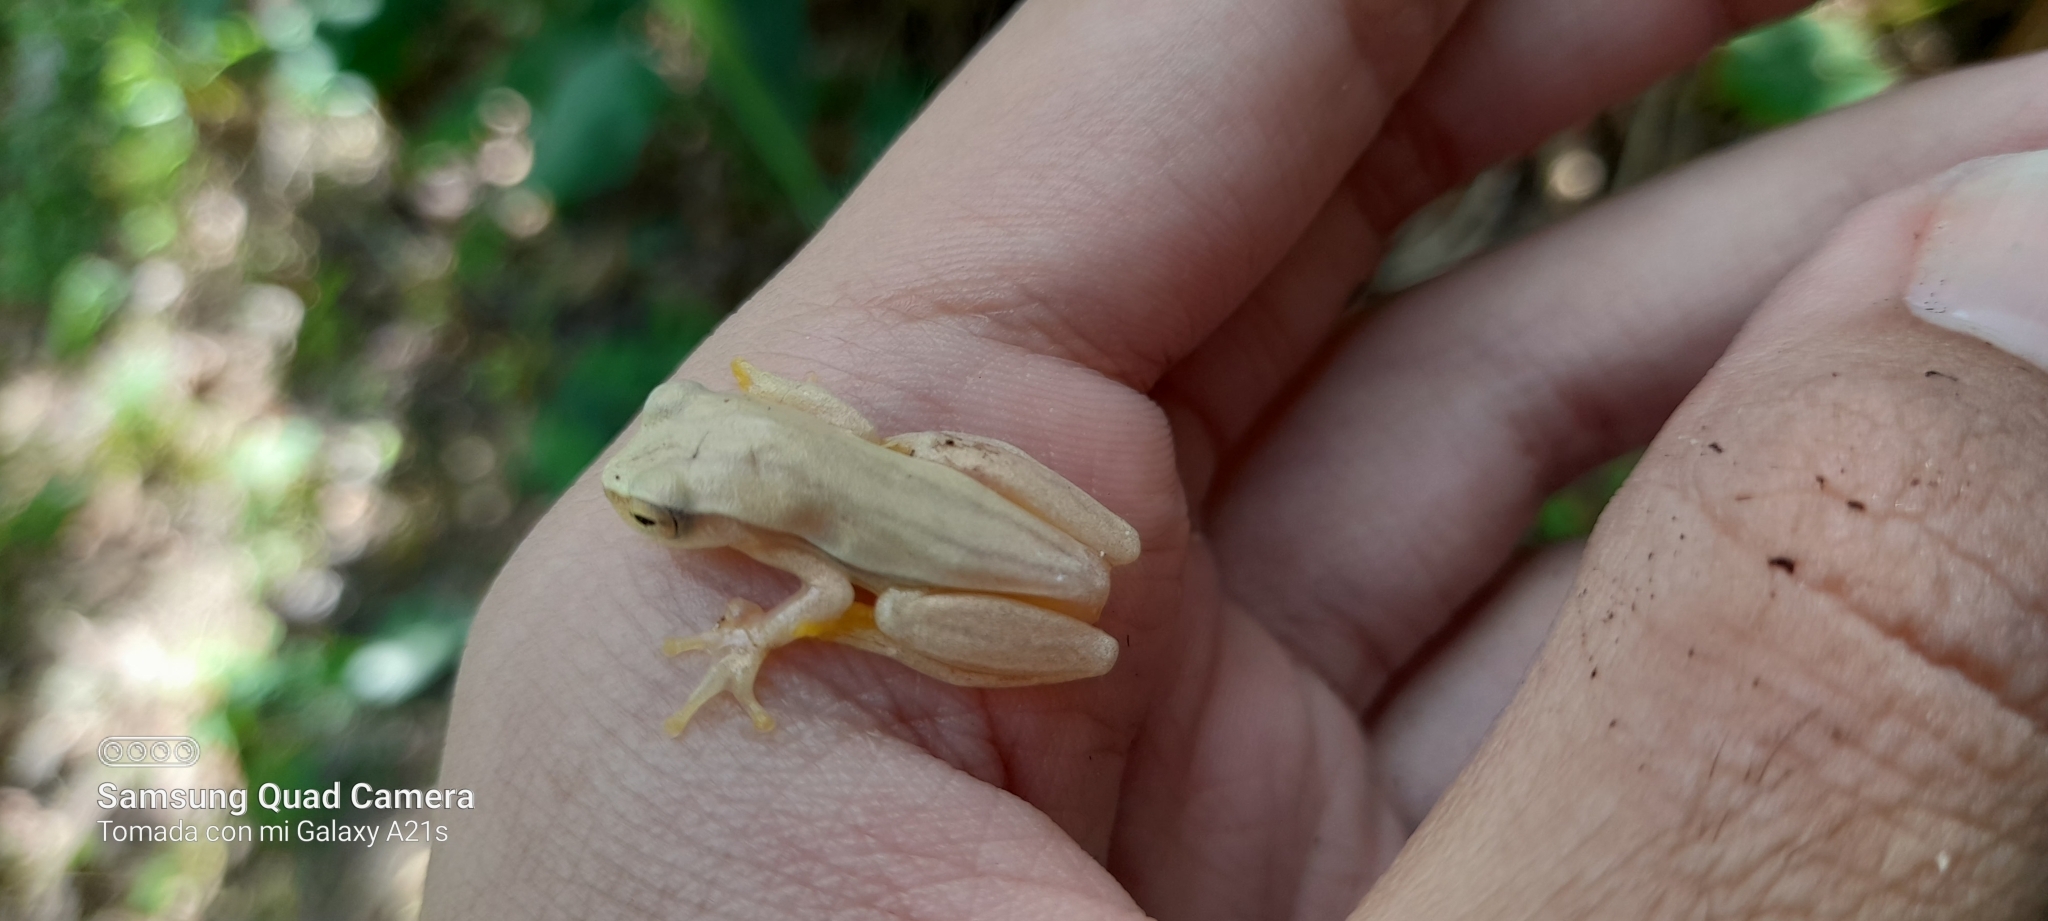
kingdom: Animalia
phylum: Chordata
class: Amphibia
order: Anura
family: Hylidae
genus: Dendropsophus
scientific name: Dendropsophus microcephalus
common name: Small-headed treefrog
